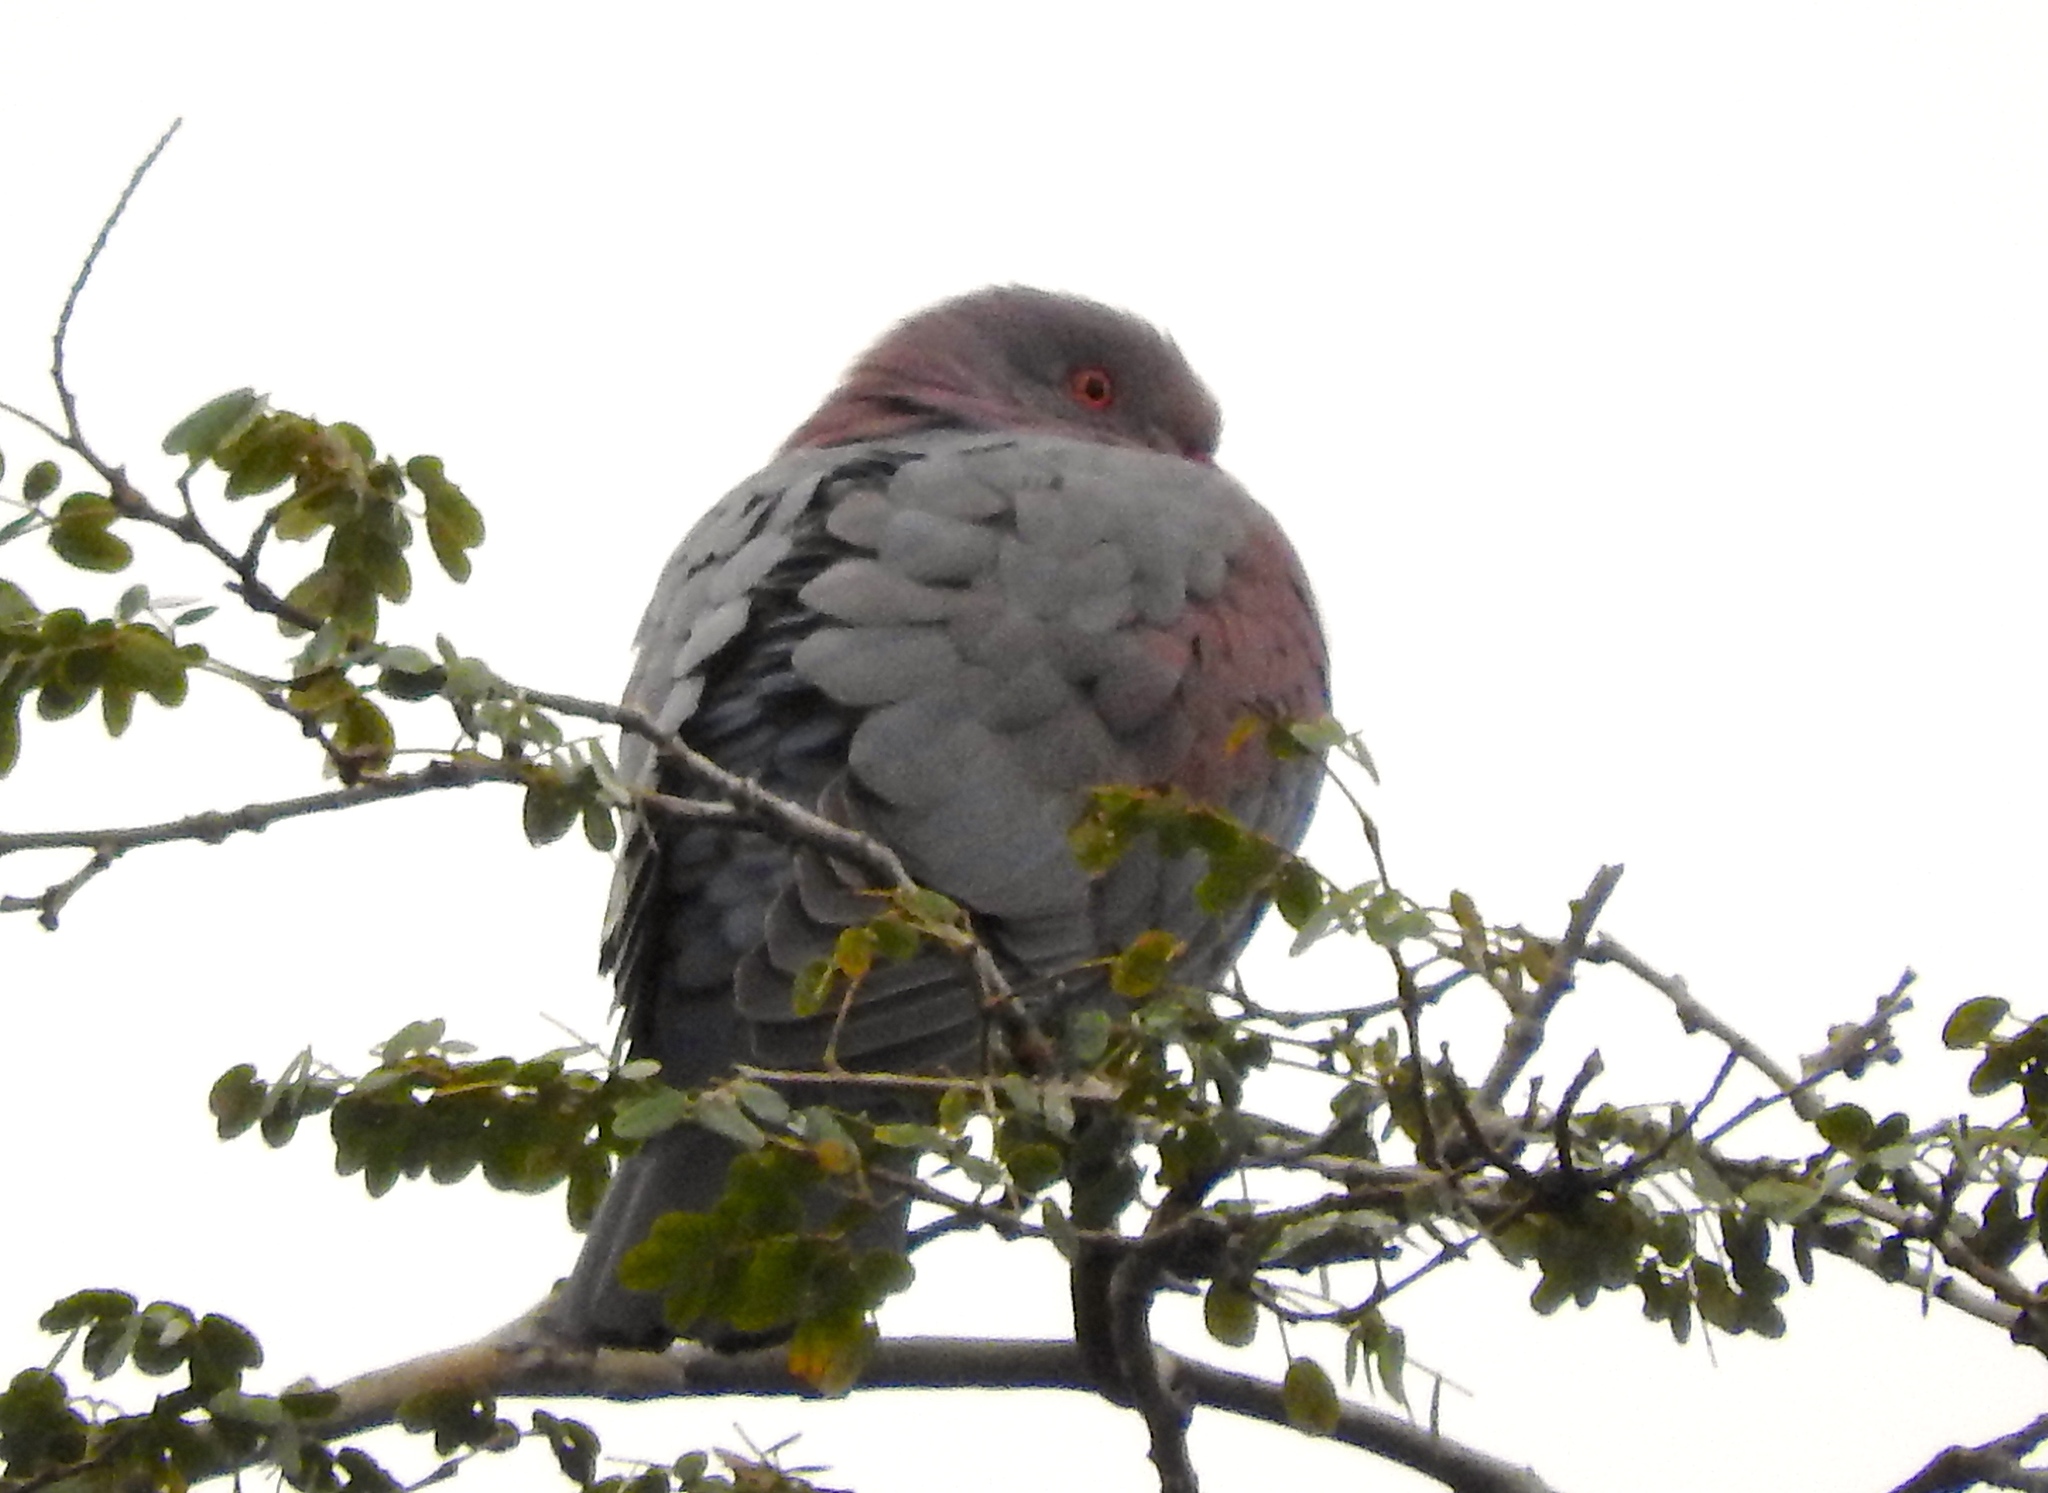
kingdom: Animalia
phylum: Chordata
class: Aves
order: Columbiformes
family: Columbidae
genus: Patagioenas
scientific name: Patagioenas flavirostris
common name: Red-billed pigeon
